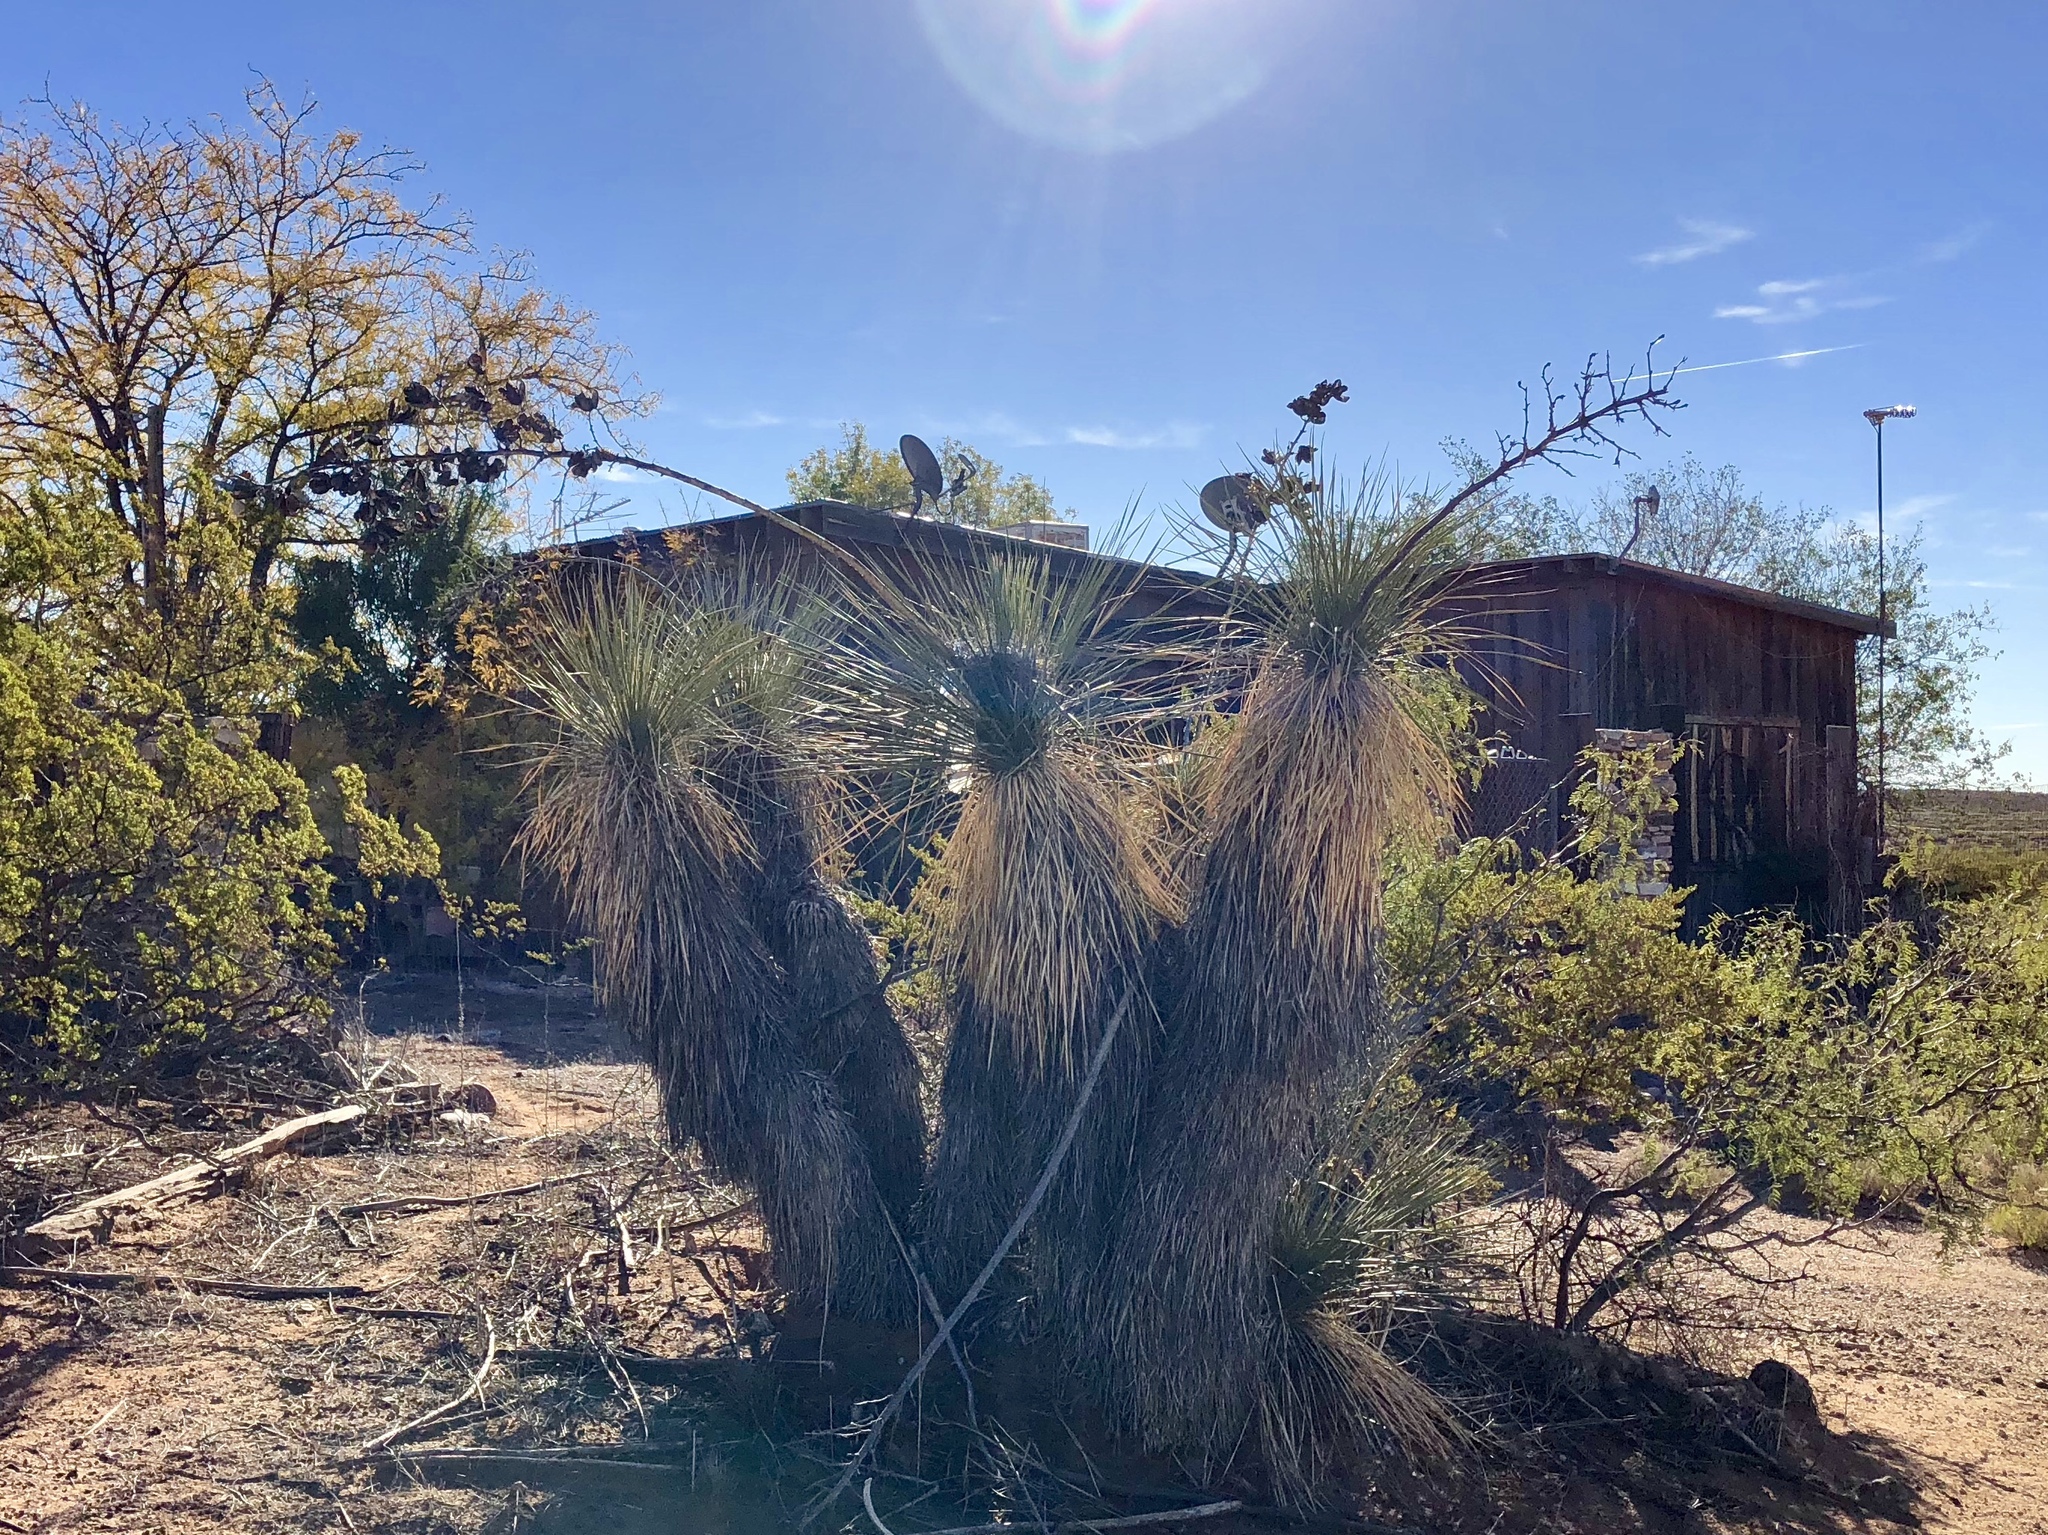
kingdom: Plantae
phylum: Tracheophyta
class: Liliopsida
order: Asparagales
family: Asparagaceae
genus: Yucca
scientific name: Yucca elata
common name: Palmella
